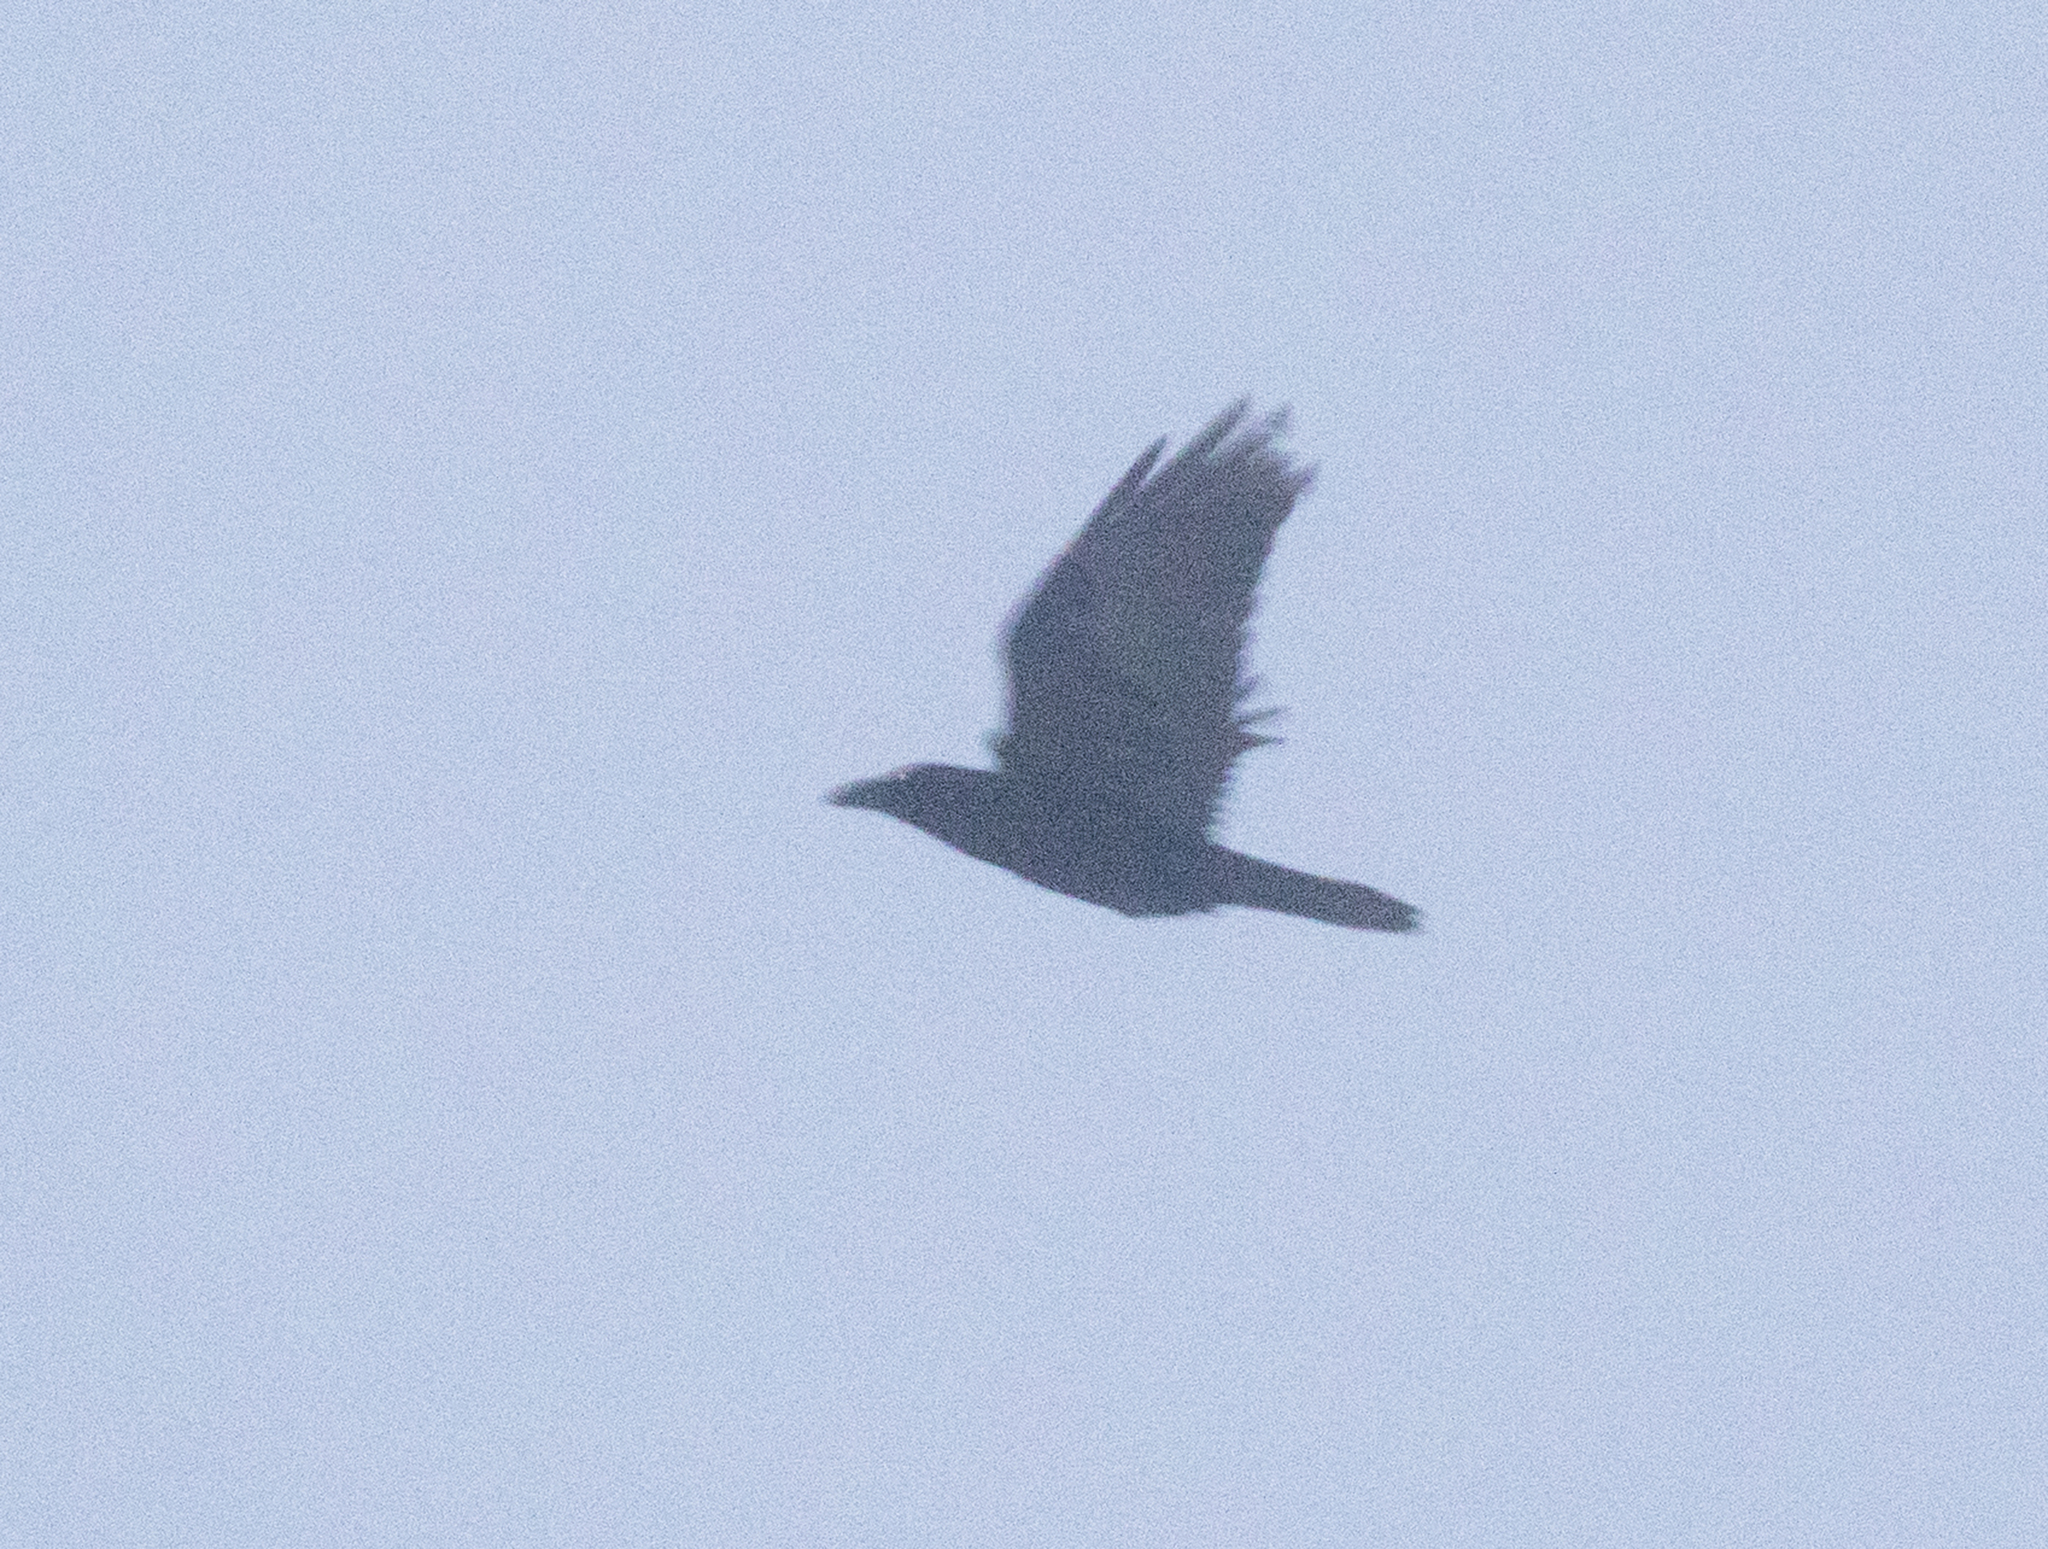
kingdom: Animalia
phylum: Chordata
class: Aves
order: Passeriformes
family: Corvidae
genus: Corvus
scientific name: Corvus corax
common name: Common raven
